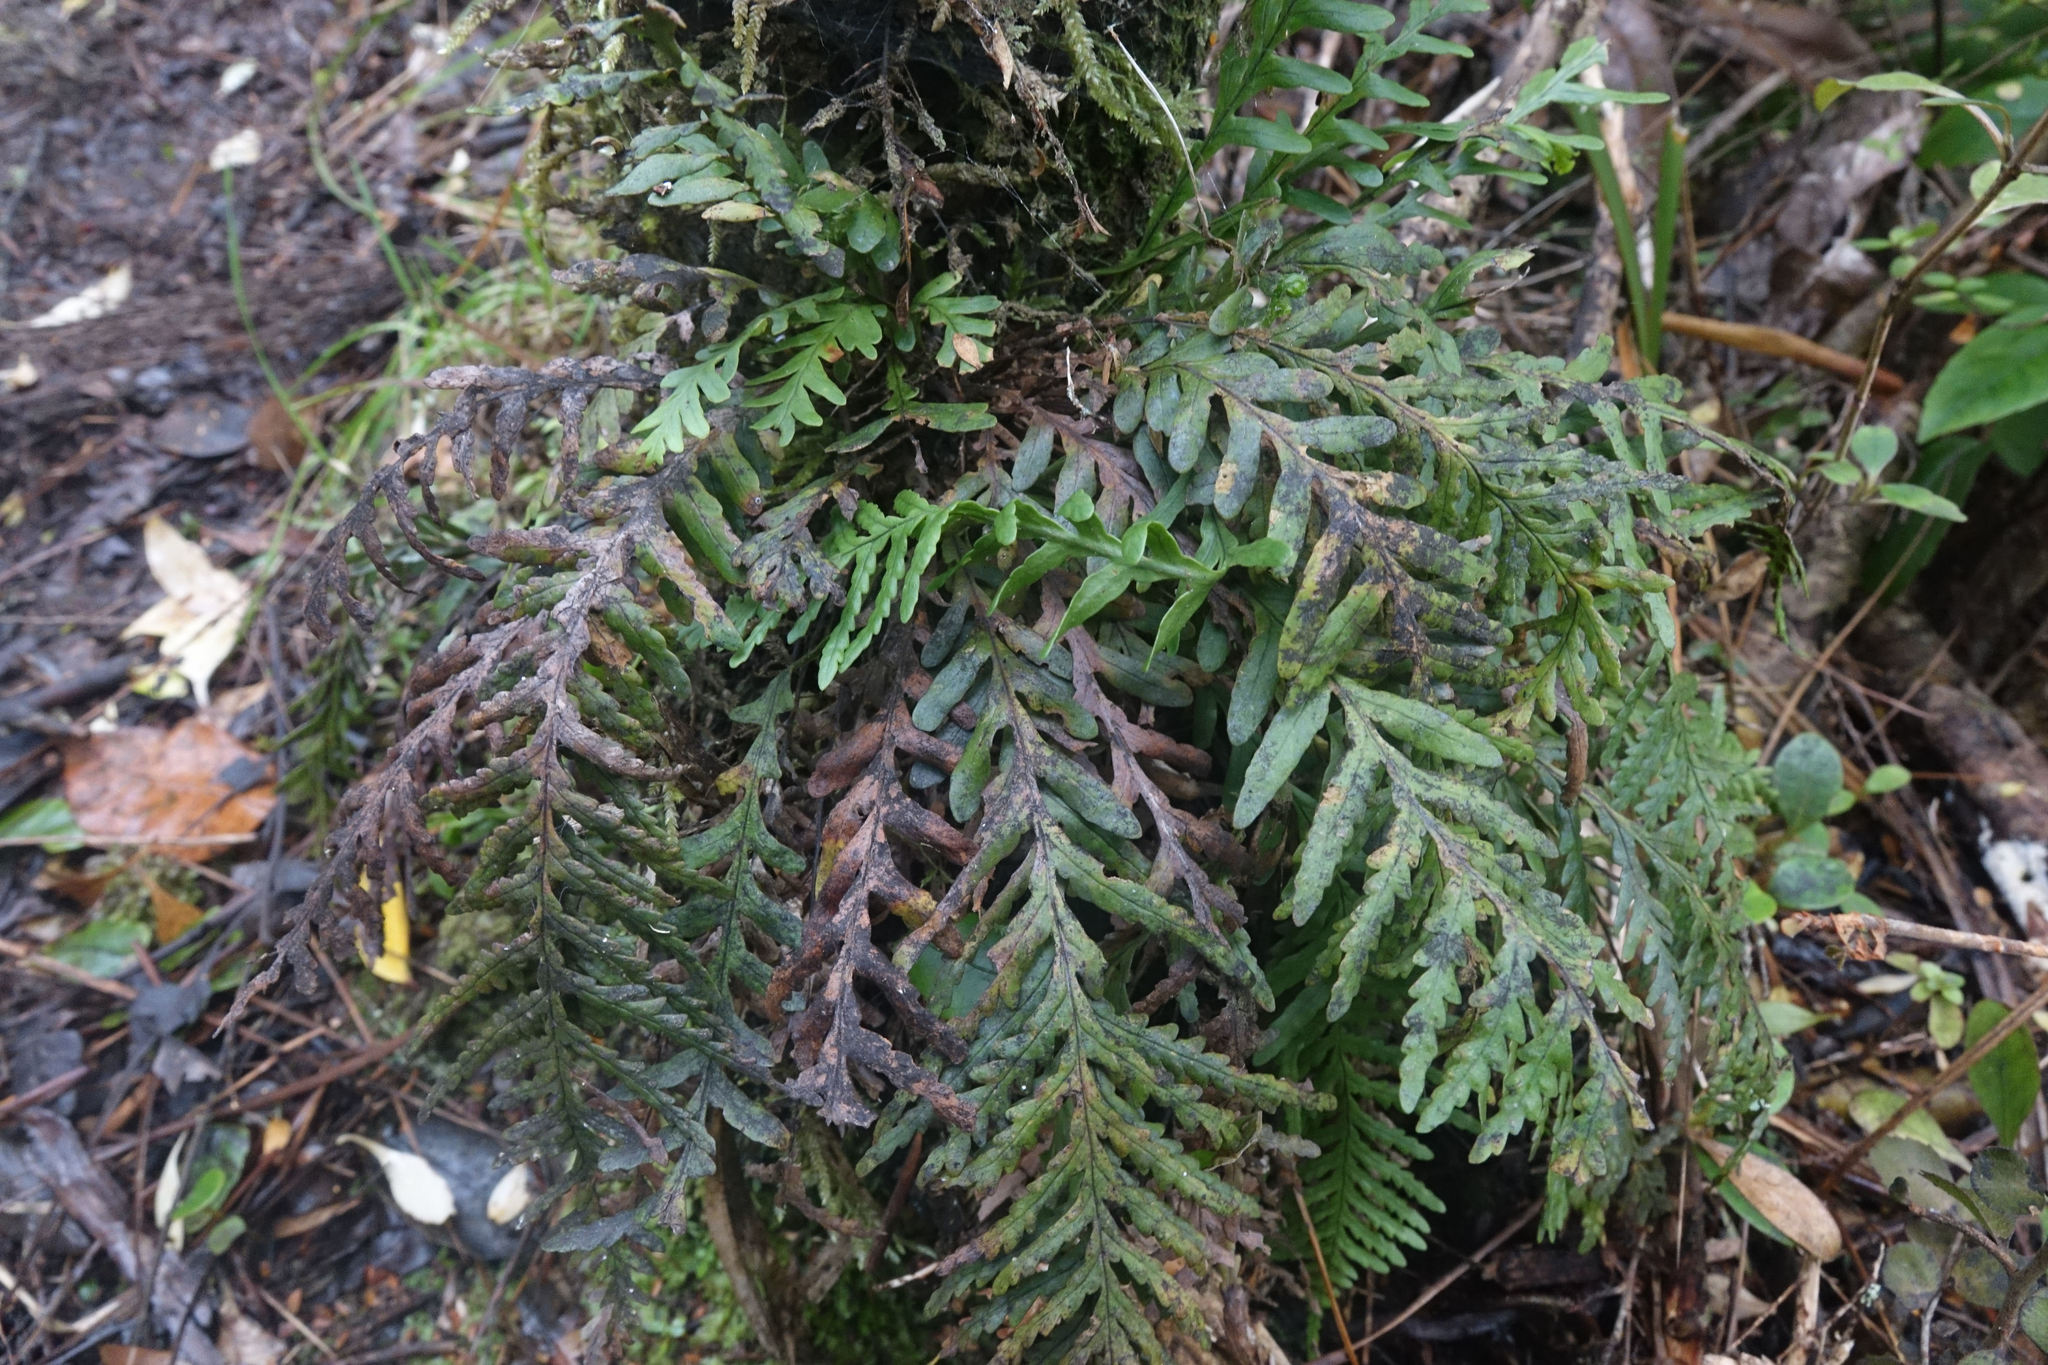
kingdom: Plantae
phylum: Tracheophyta
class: Polypodiopsida
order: Polypodiales
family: Polypodiaceae
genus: Notogrammitis
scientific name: Notogrammitis heterophylla
